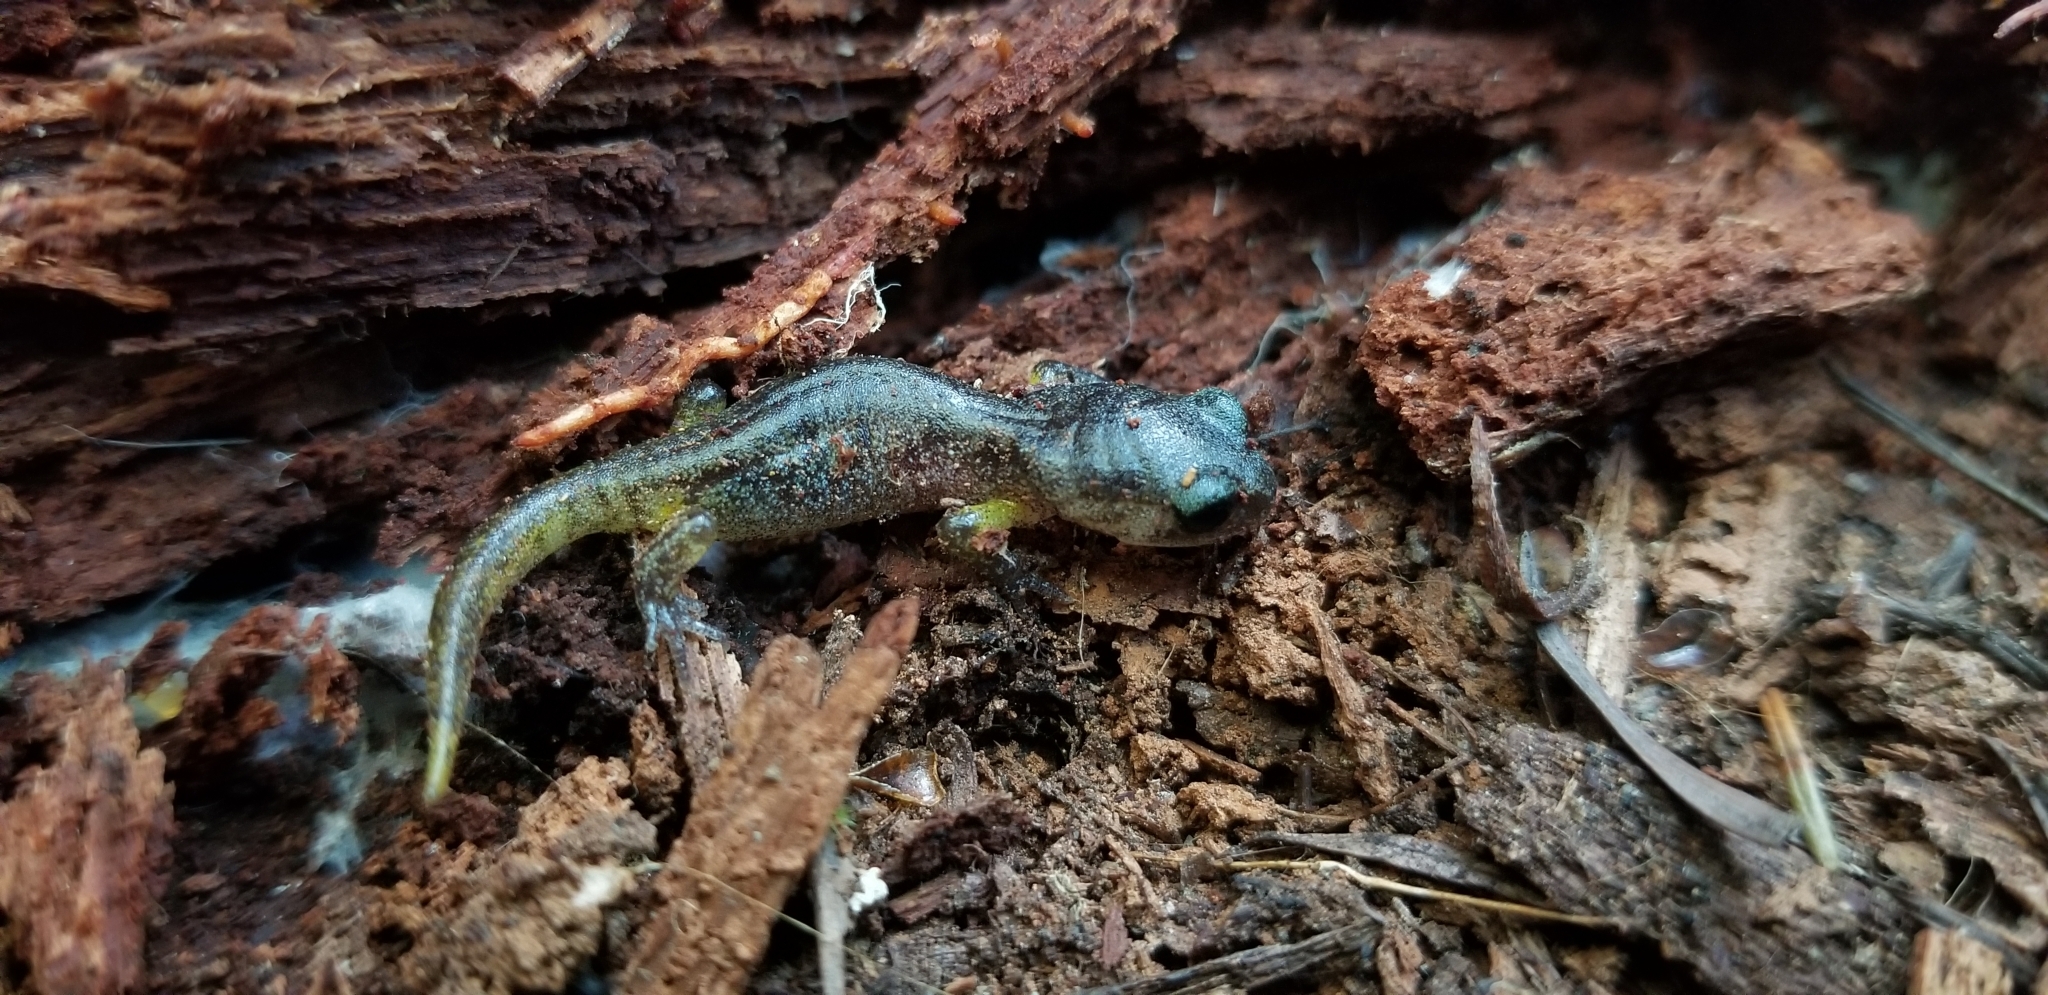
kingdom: Animalia
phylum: Chordata
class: Amphibia
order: Caudata
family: Plethodontidae
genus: Ensatina
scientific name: Ensatina eschscholtzii
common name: Ensatina
